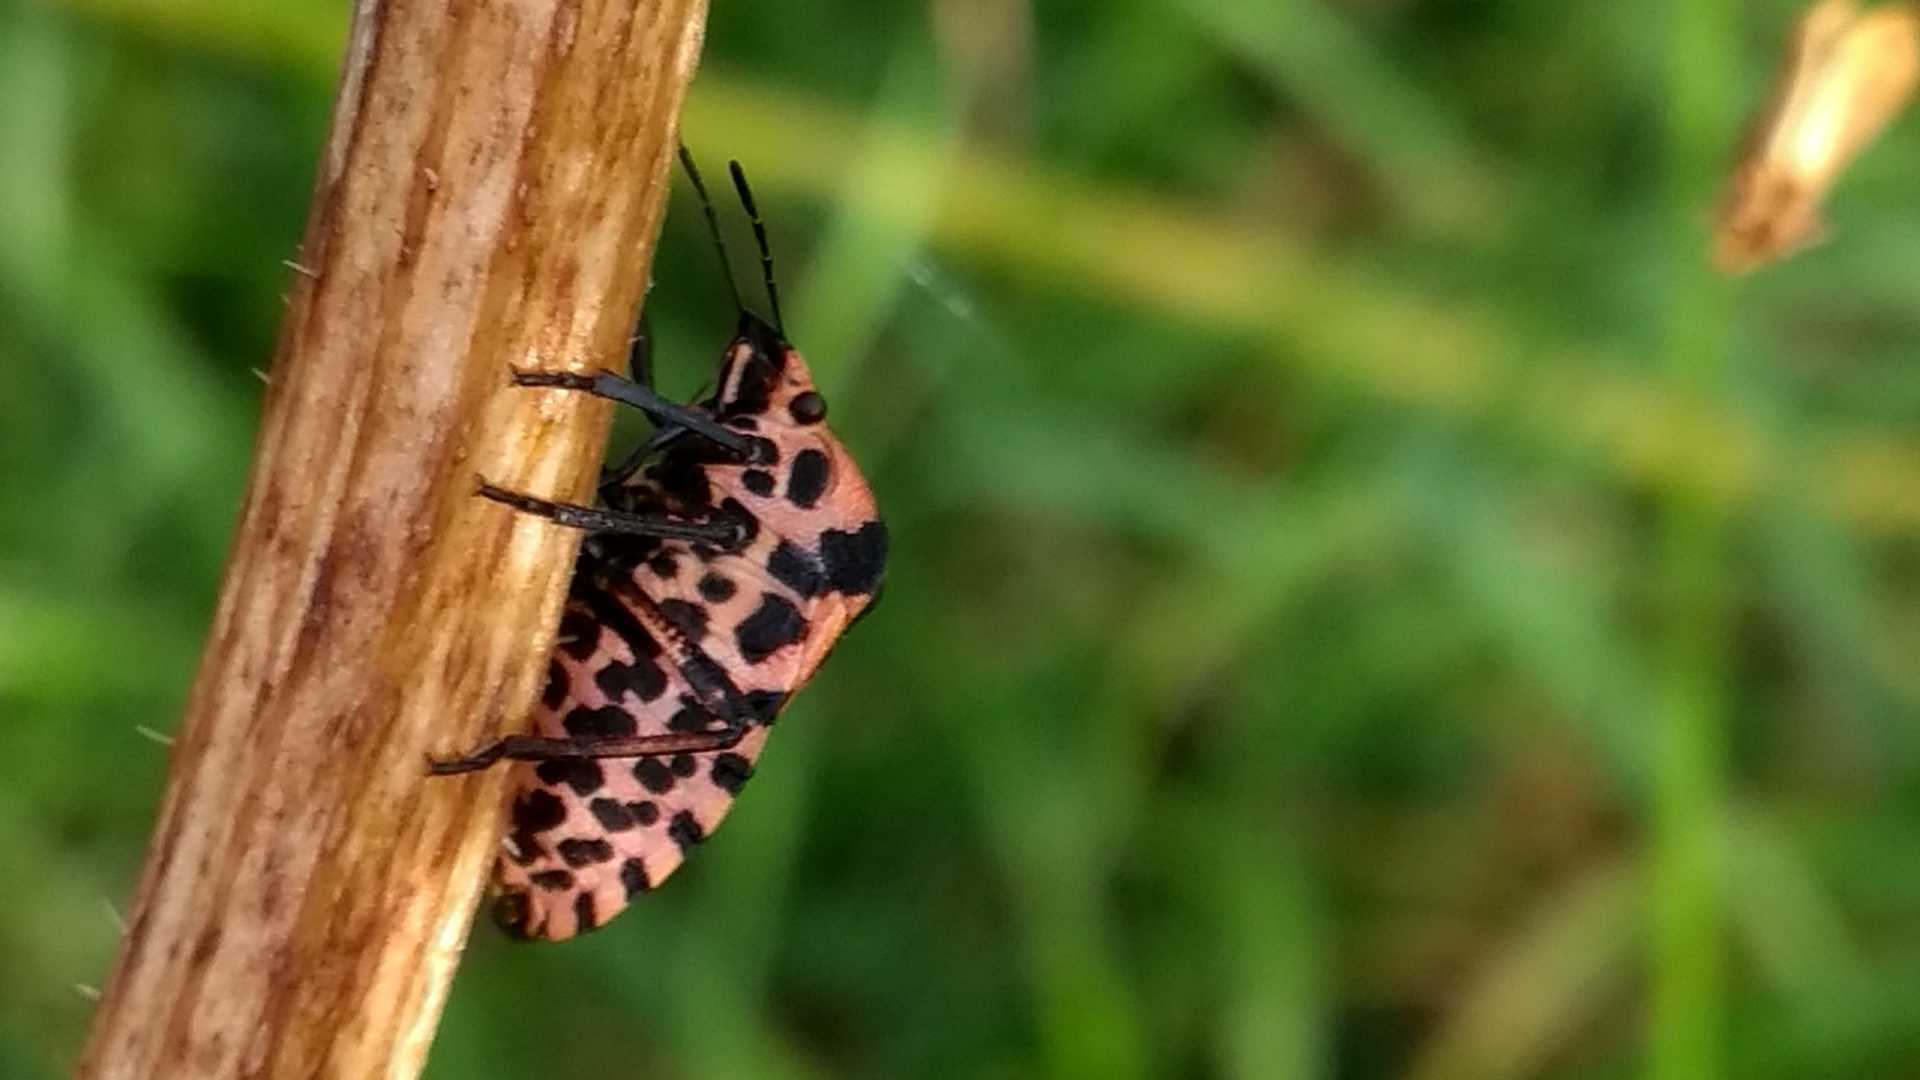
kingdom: Animalia
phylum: Arthropoda
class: Insecta
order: Hemiptera
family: Pentatomidae
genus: Graphosoma
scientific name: Graphosoma italicum
